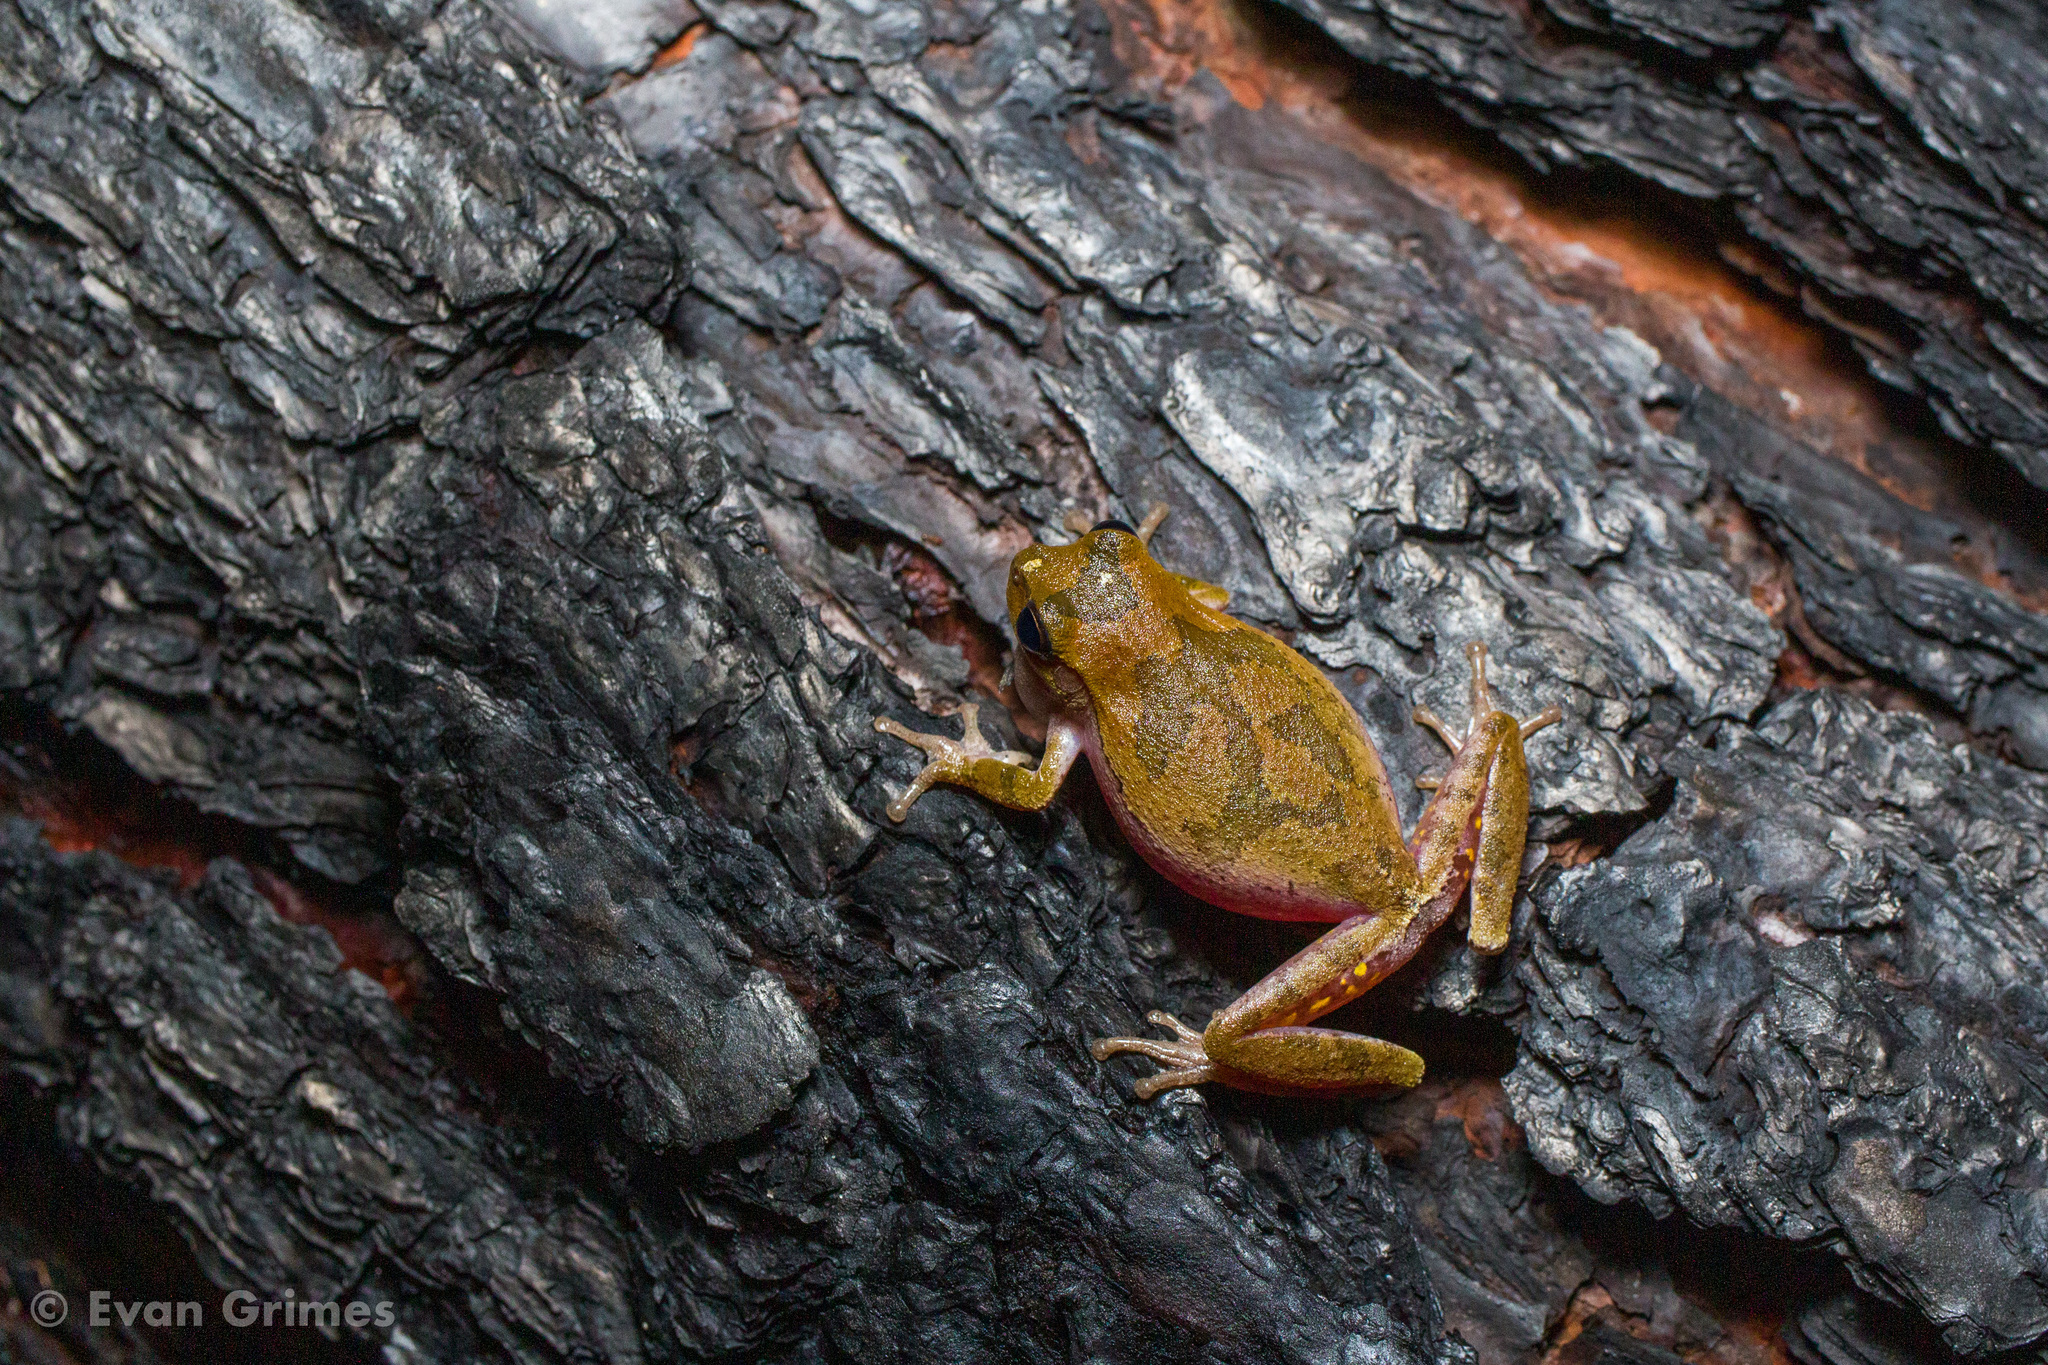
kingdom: Animalia
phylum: Chordata
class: Amphibia
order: Anura
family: Hylidae
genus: Hyla
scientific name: Hyla femoralis
